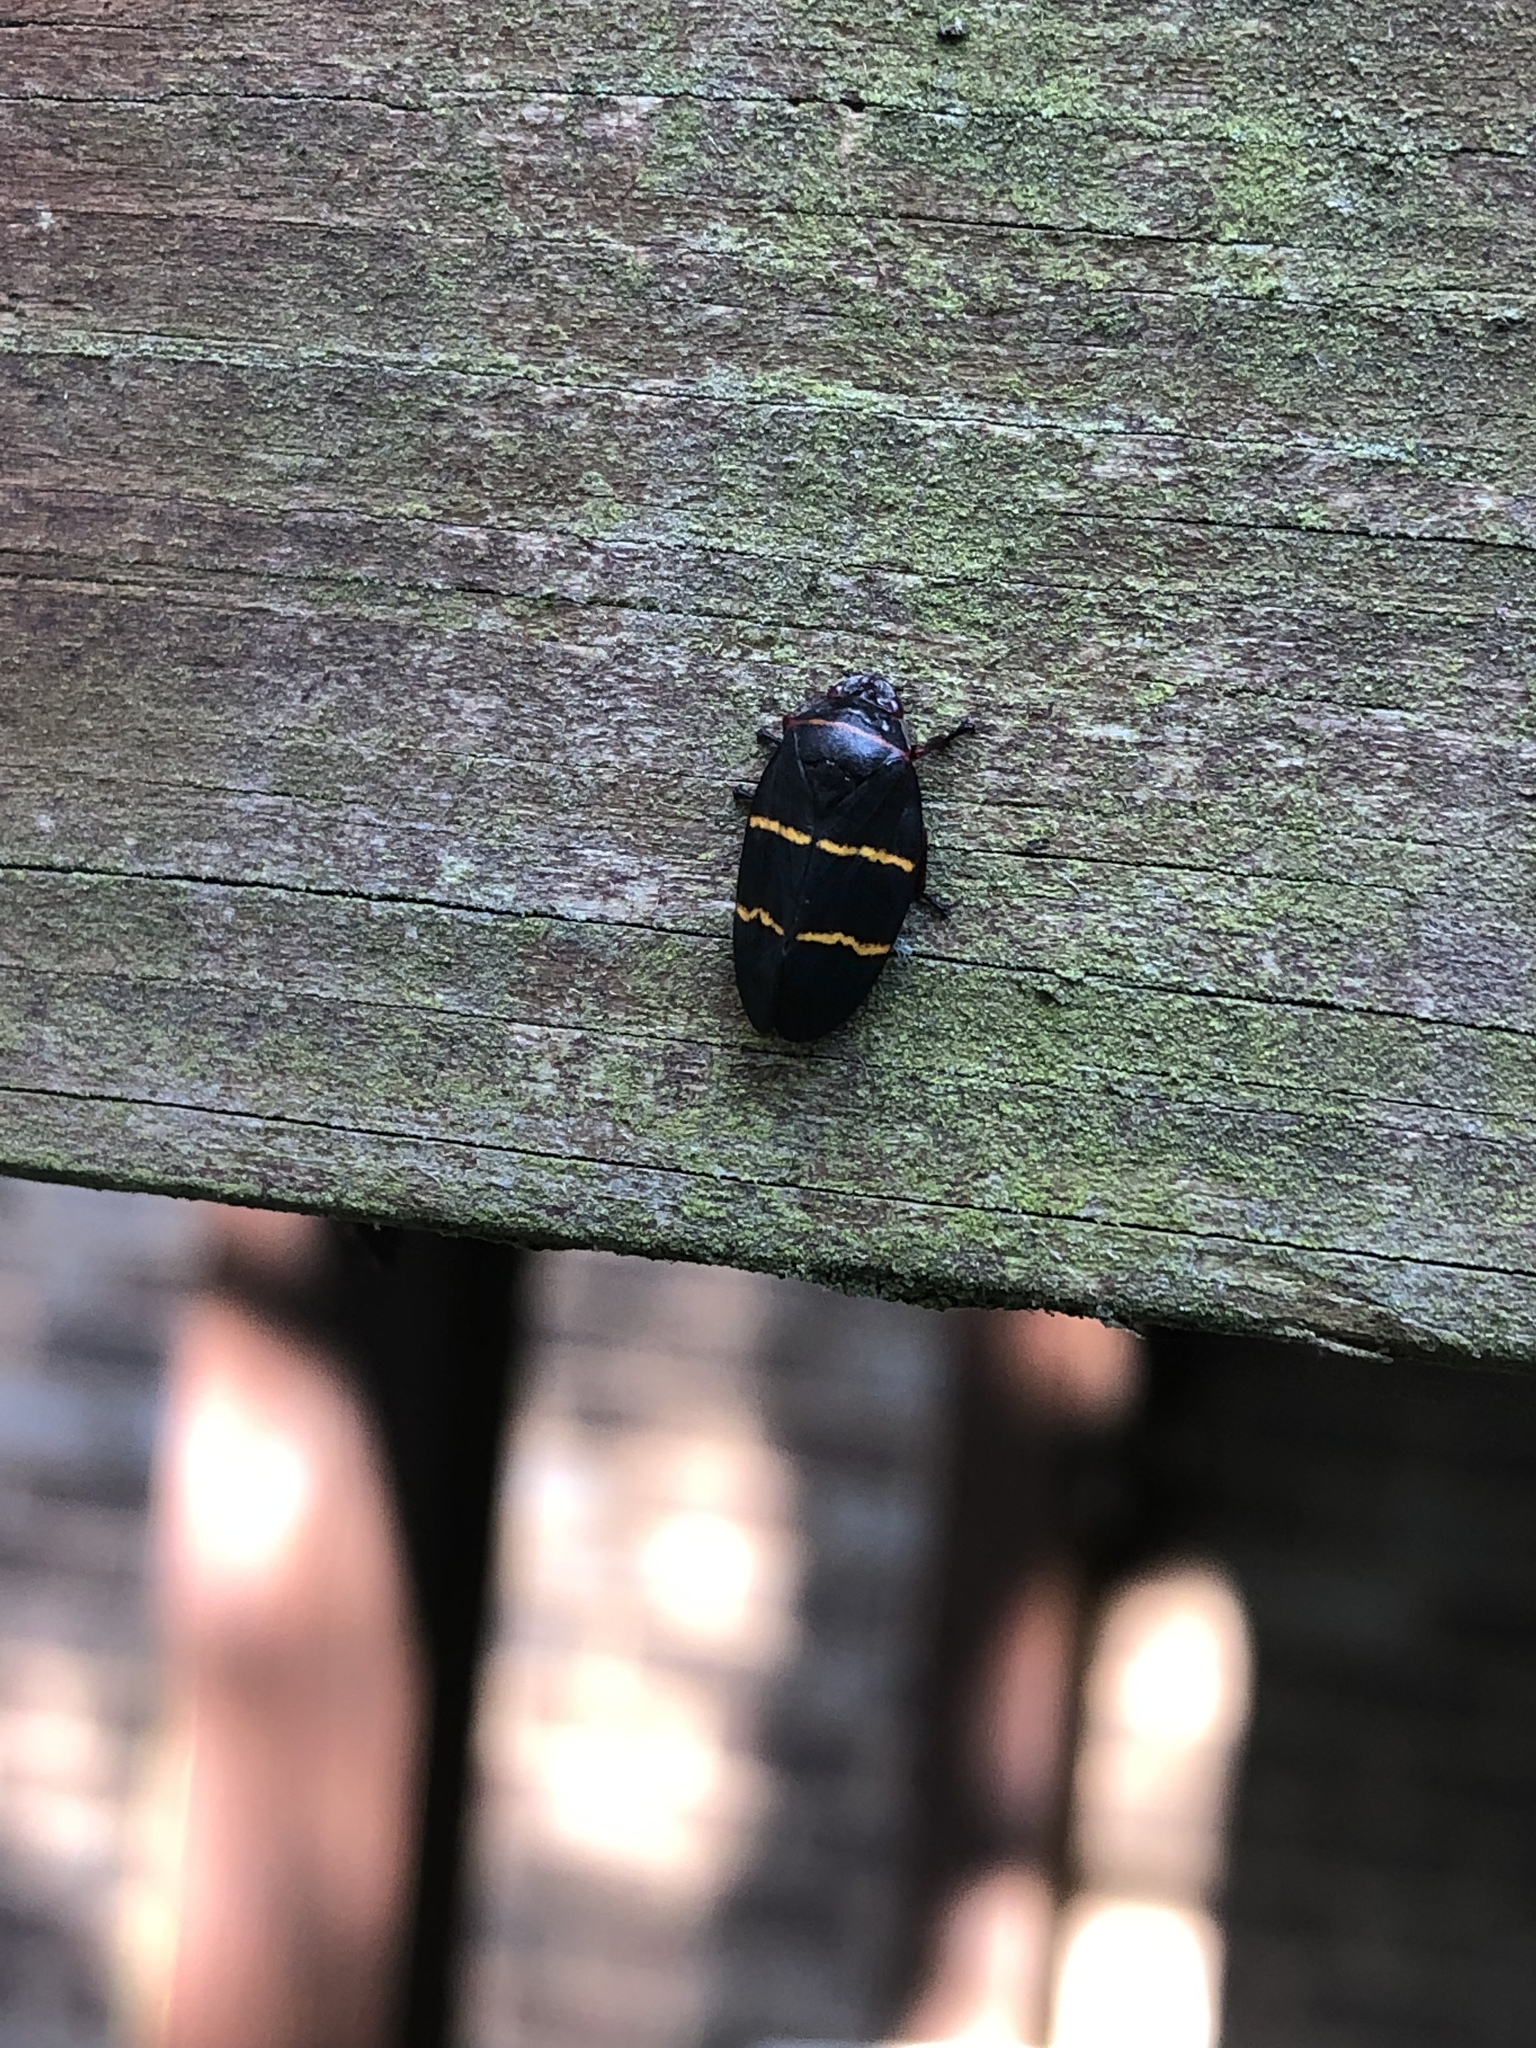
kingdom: Animalia
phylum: Arthropoda
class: Insecta
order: Hemiptera
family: Cercopidae
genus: Prosapia
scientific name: Prosapia bicincta
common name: Twolined spittlebug
